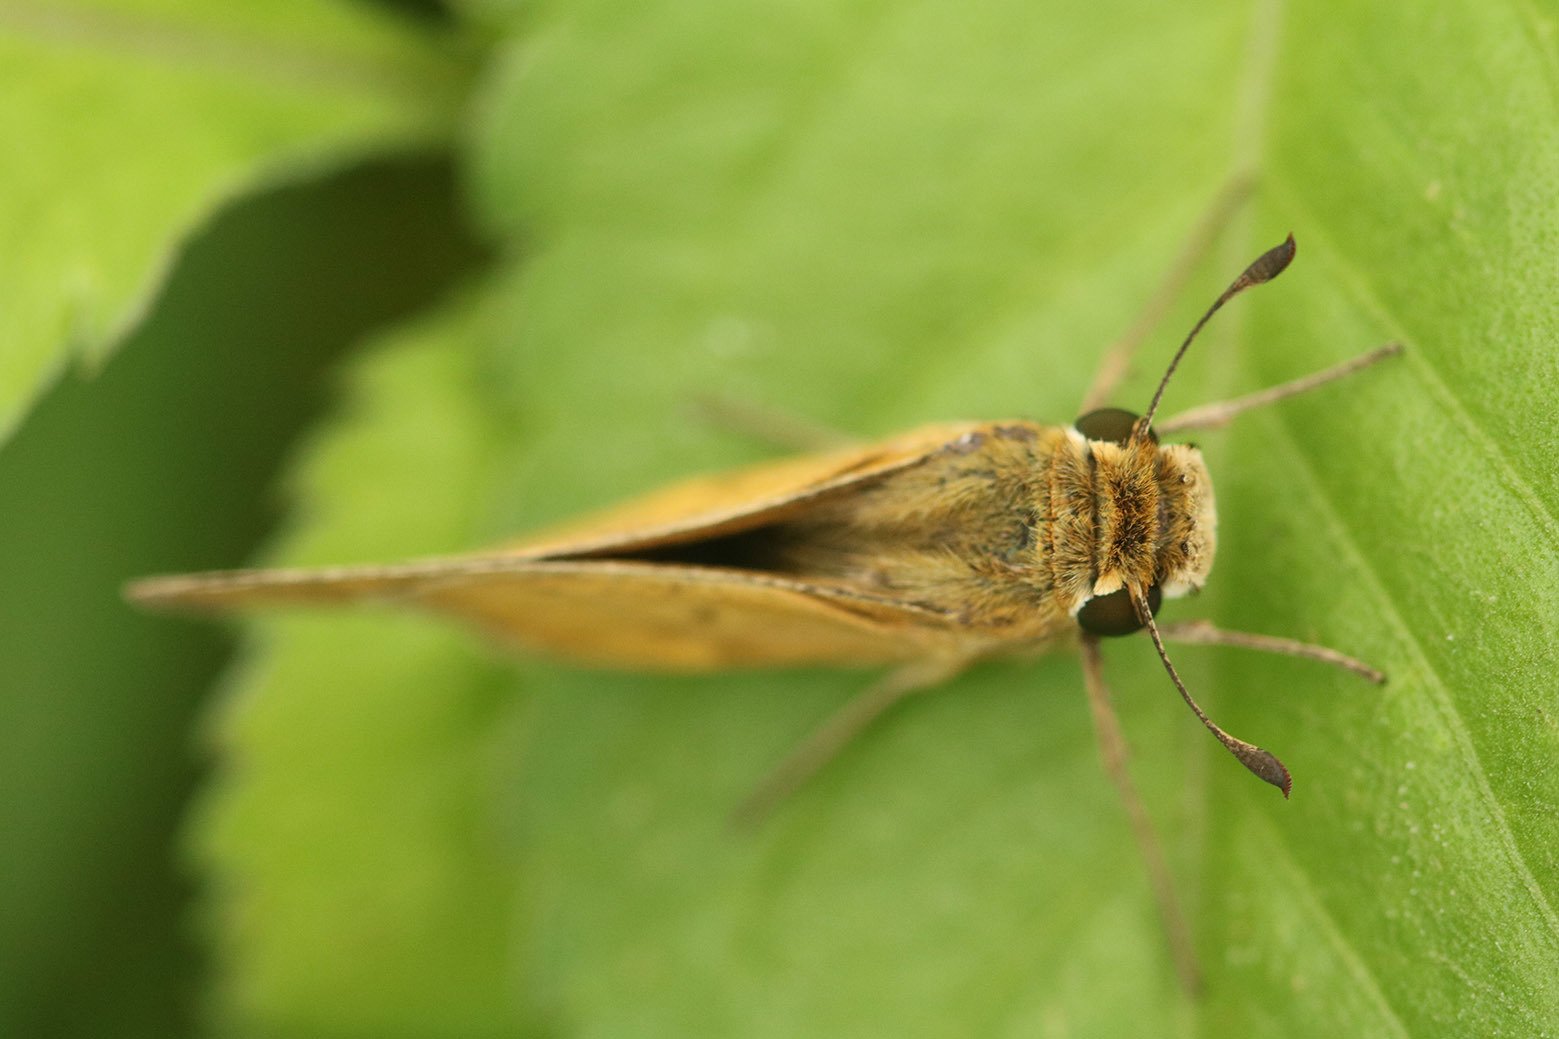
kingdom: Animalia
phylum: Arthropoda
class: Insecta
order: Lepidoptera
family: Hesperiidae
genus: Hylephila
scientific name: Hylephila phyleus
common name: Fiery skipper
